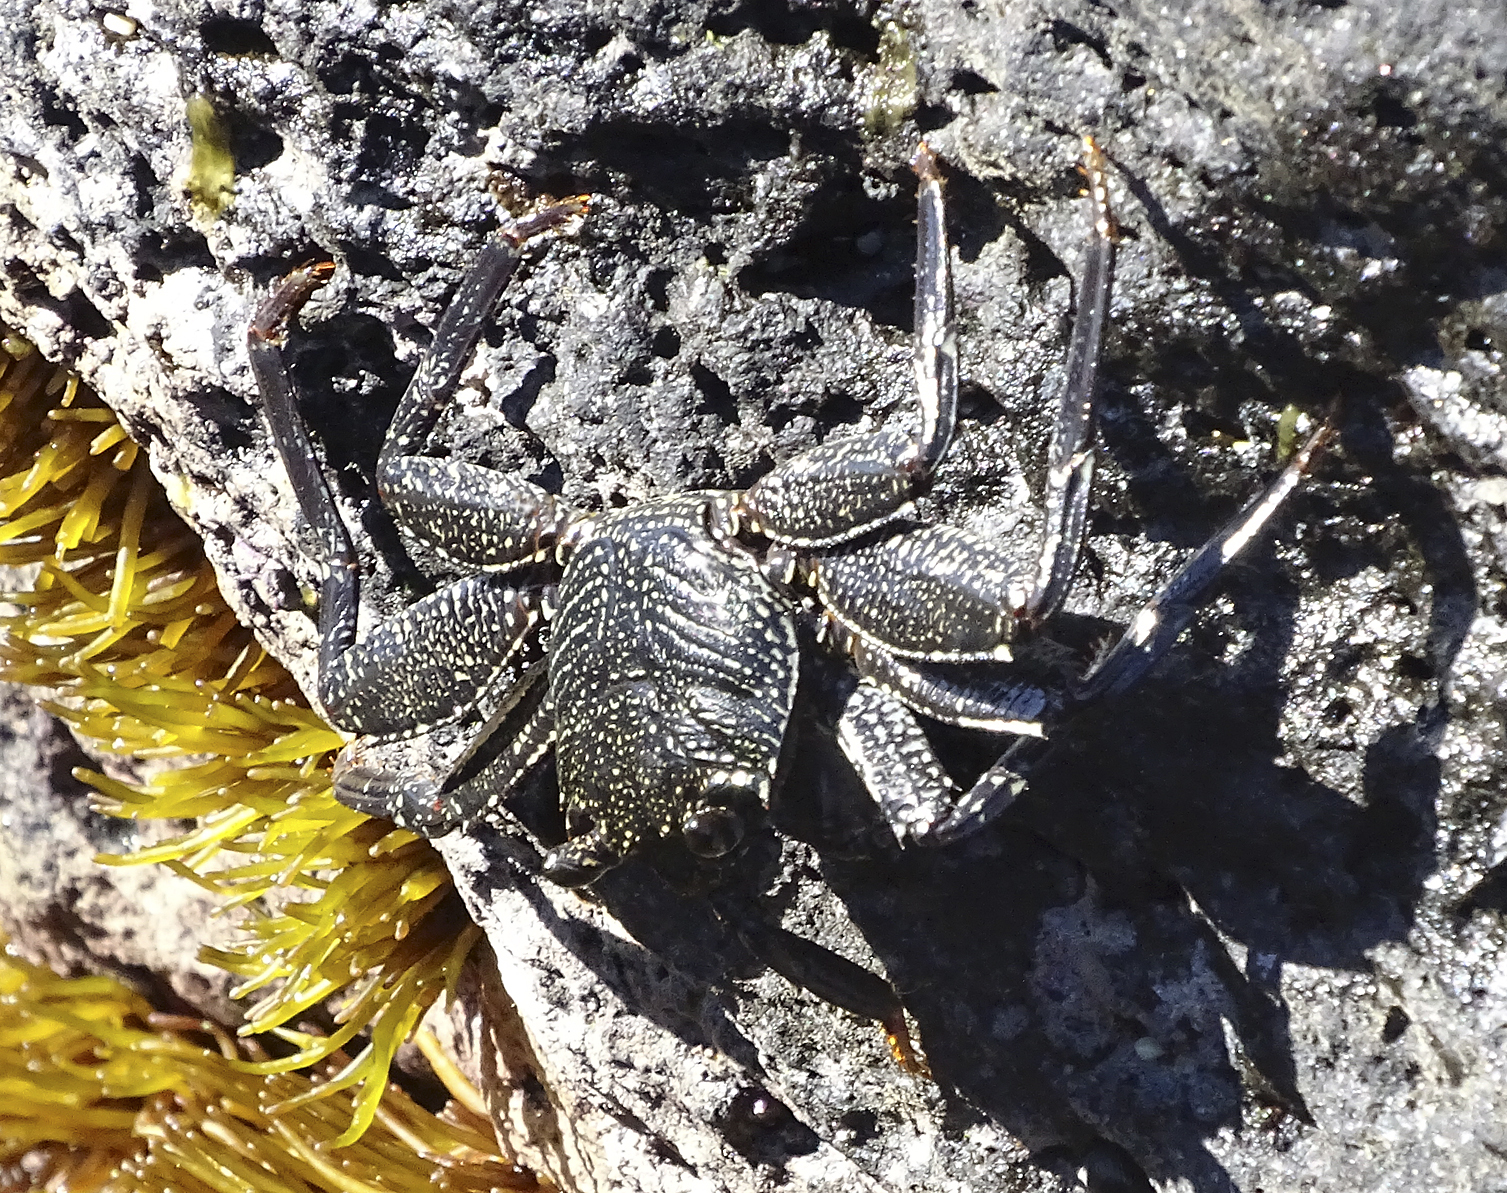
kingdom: Animalia
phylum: Arthropoda
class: Malacostraca
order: Decapoda
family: Grapsidae
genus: Grapsus
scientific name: Grapsus tenuicrustatus
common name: Natal lightfoot crab
